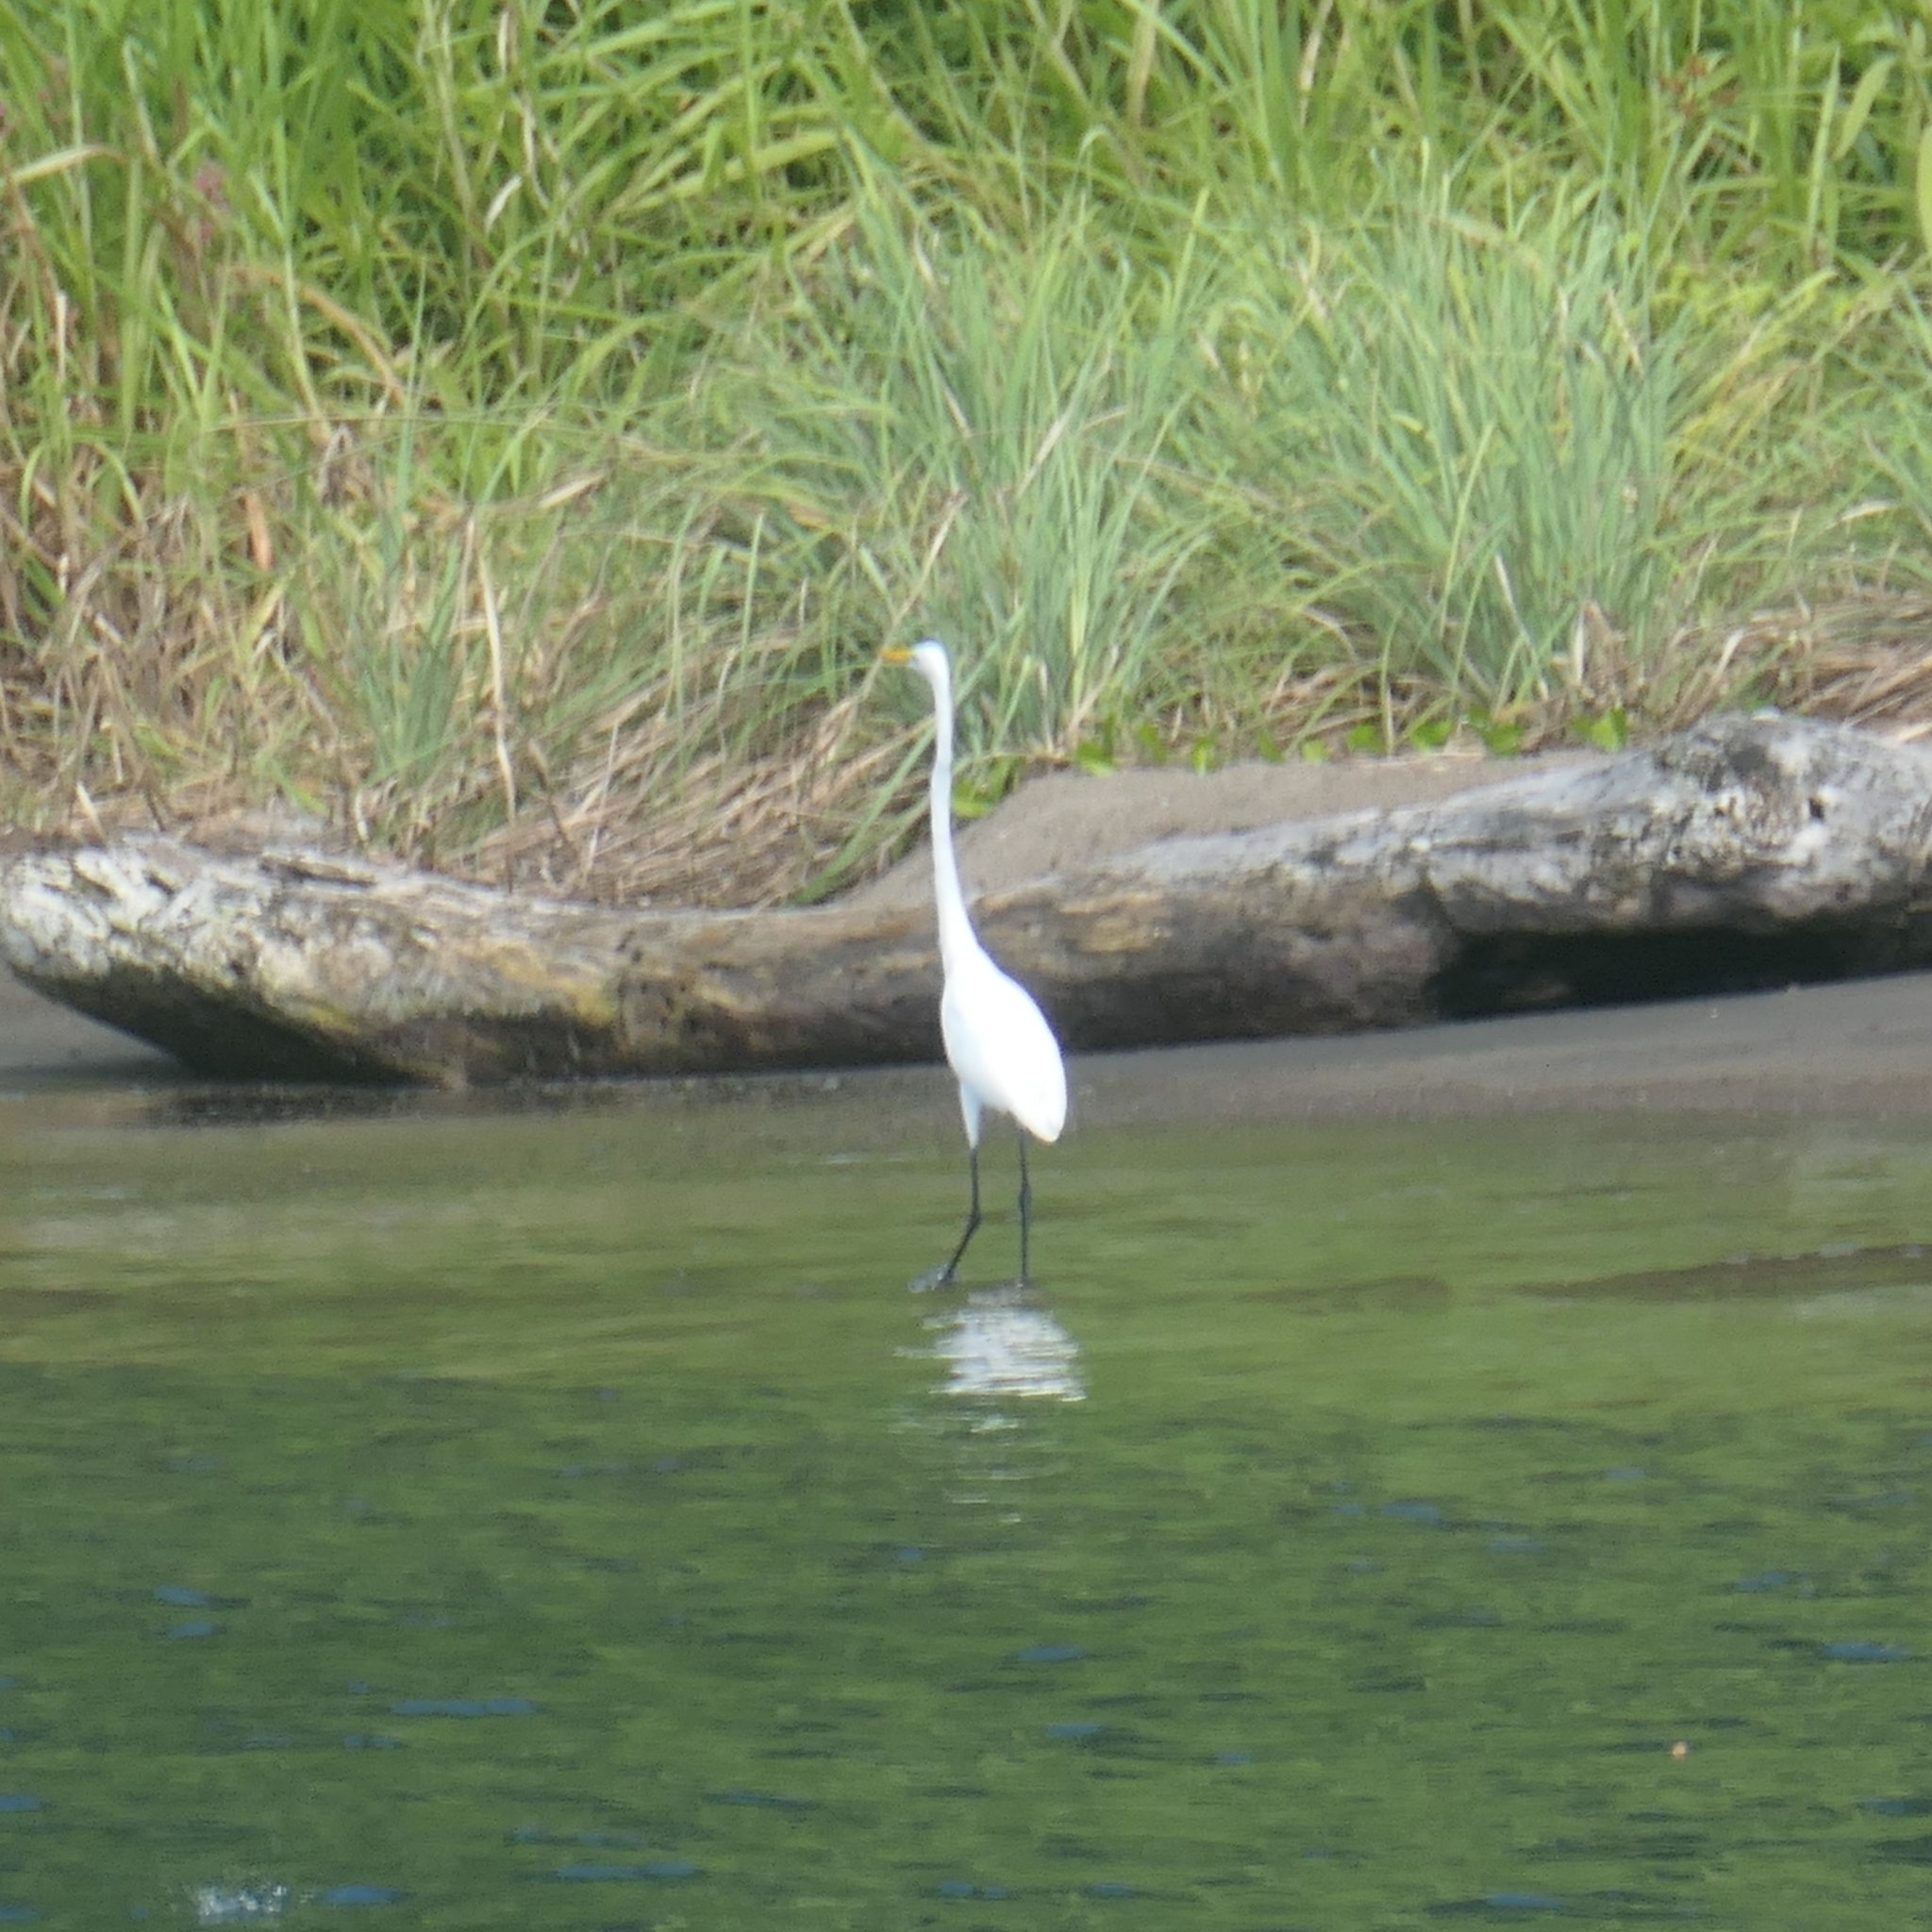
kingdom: Animalia
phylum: Chordata
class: Aves
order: Pelecaniformes
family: Ardeidae
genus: Ardea
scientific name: Ardea alba
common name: Great egret
